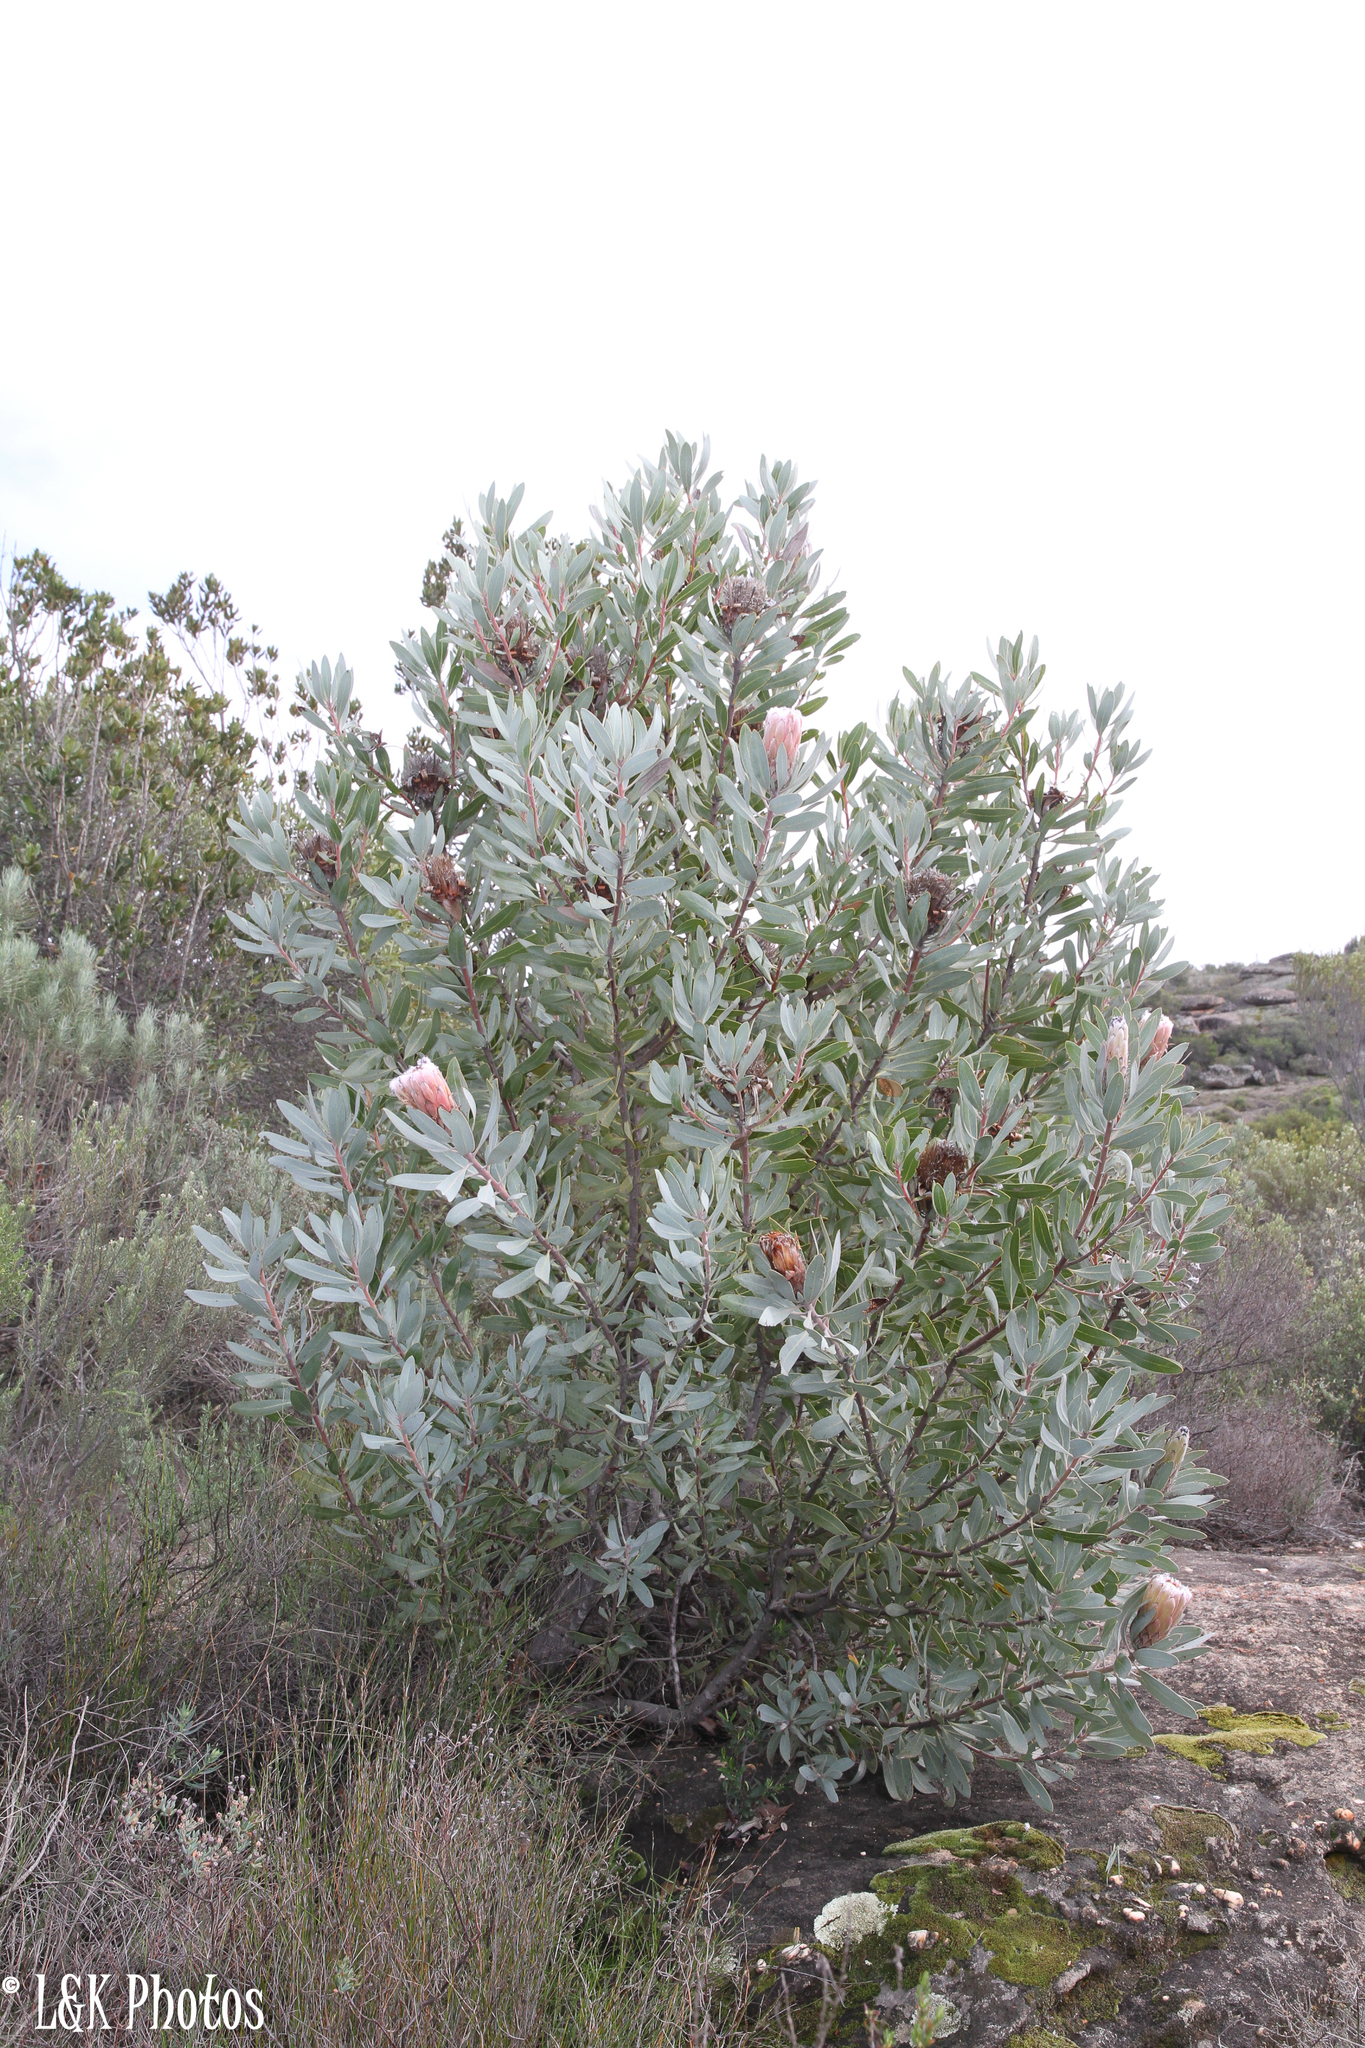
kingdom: Plantae
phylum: Tracheophyta
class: Magnoliopsida
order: Proteales
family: Proteaceae
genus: Protea
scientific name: Protea laurifolia
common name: Grey-leaf sugarbsh
